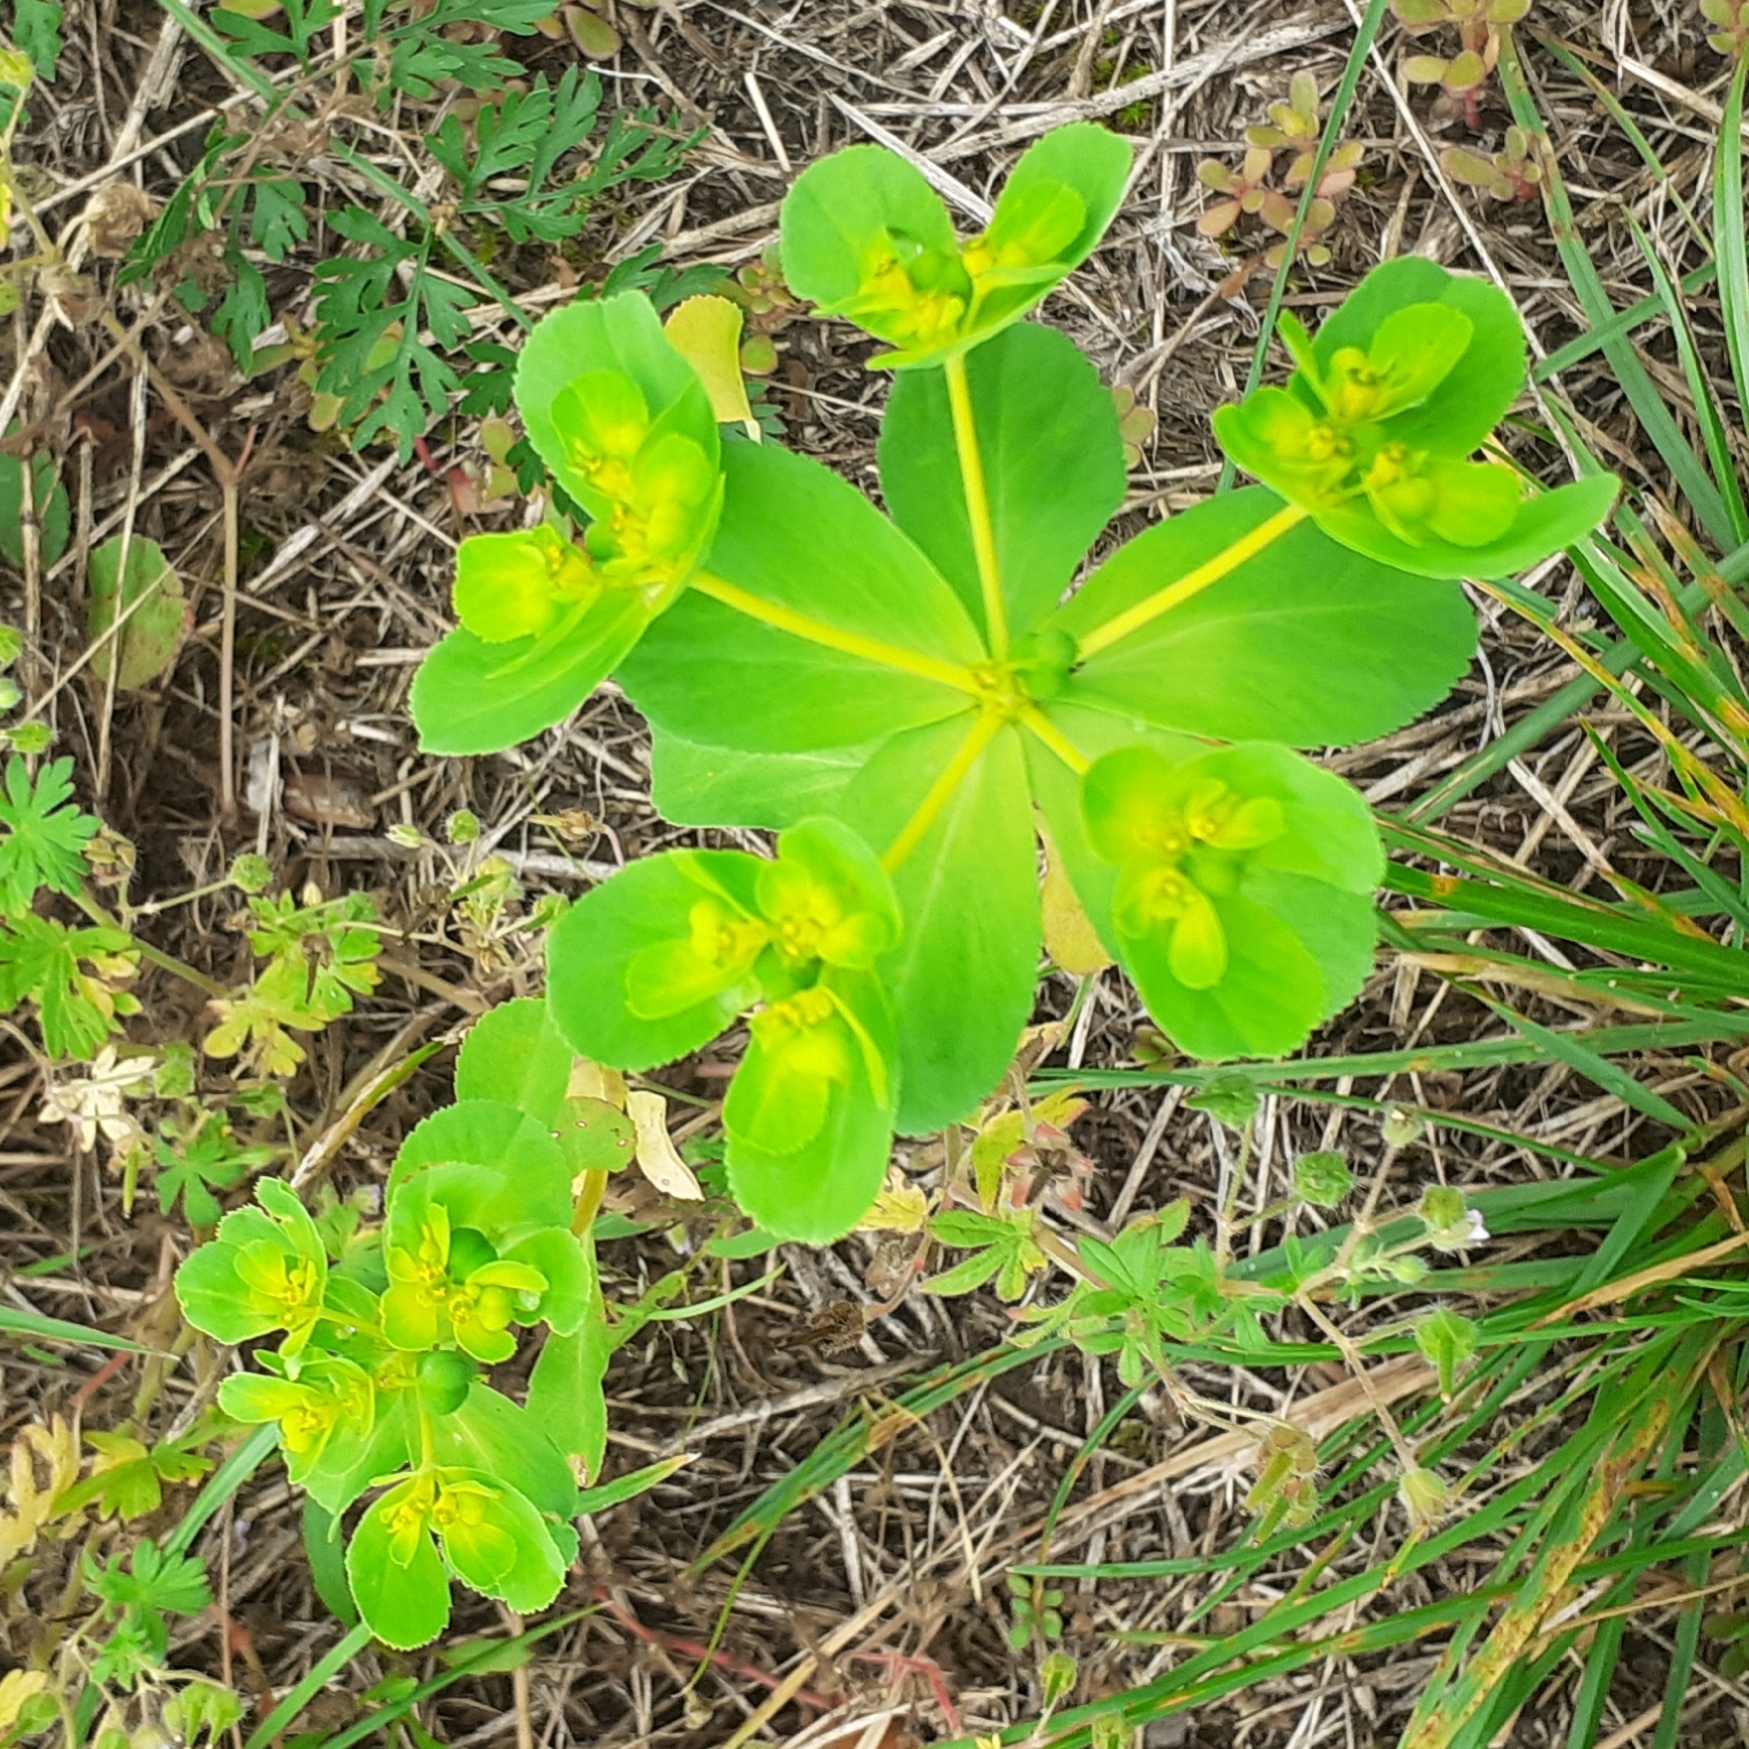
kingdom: Plantae
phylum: Tracheophyta
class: Magnoliopsida
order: Malpighiales
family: Euphorbiaceae
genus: Euphorbia
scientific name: Euphorbia helioscopia
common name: Sun spurge
